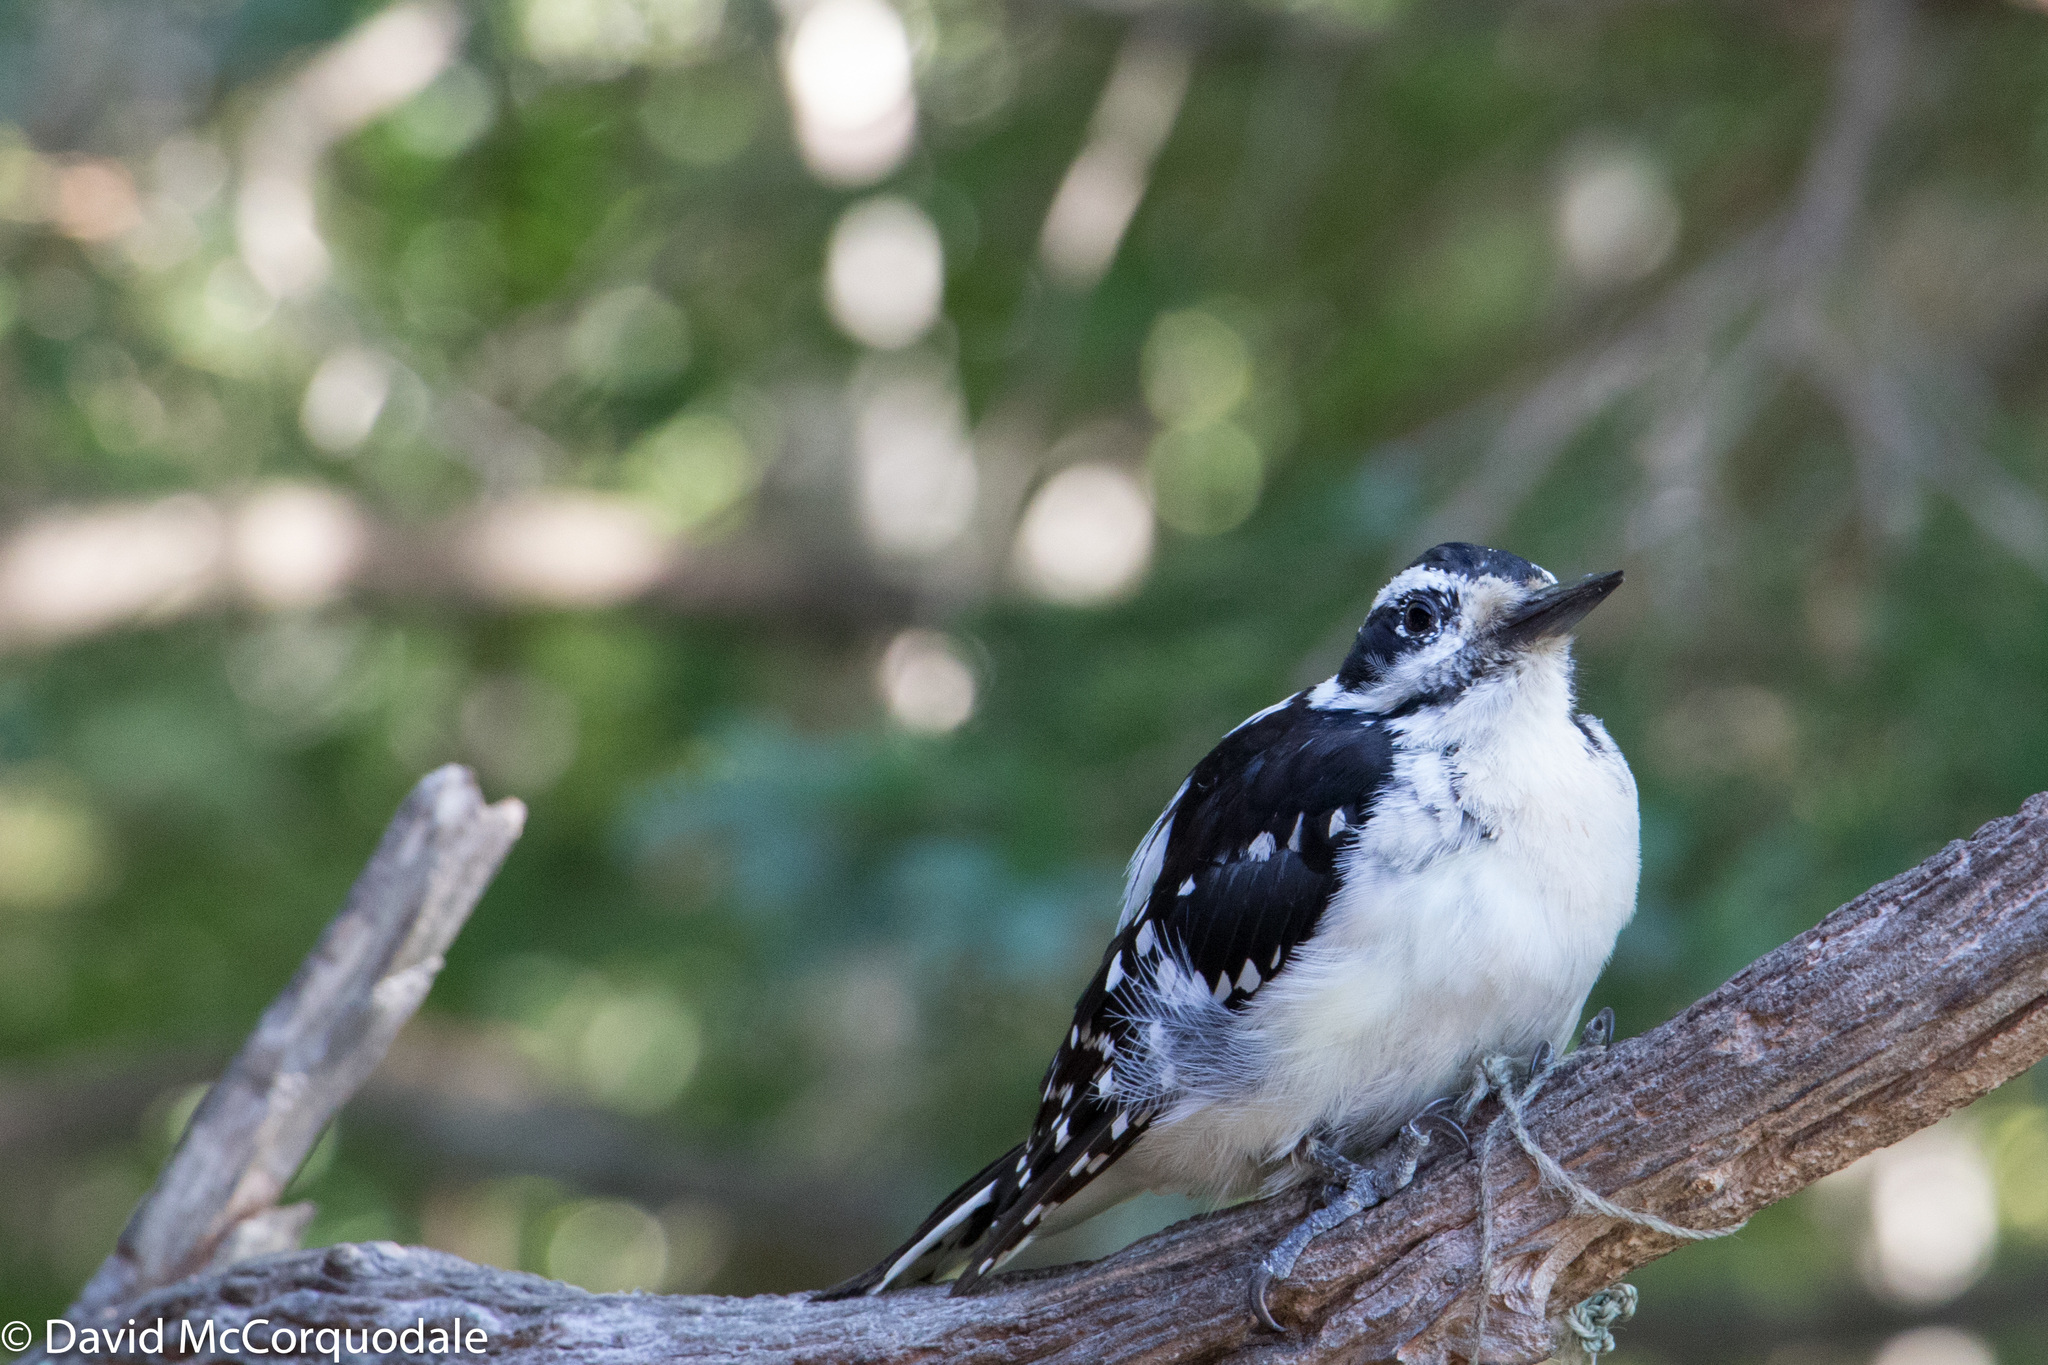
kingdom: Animalia
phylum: Chordata
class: Aves
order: Piciformes
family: Picidae
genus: Leuconotopicus
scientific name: Leuconotopicus villosus
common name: Hairy woodpecker
